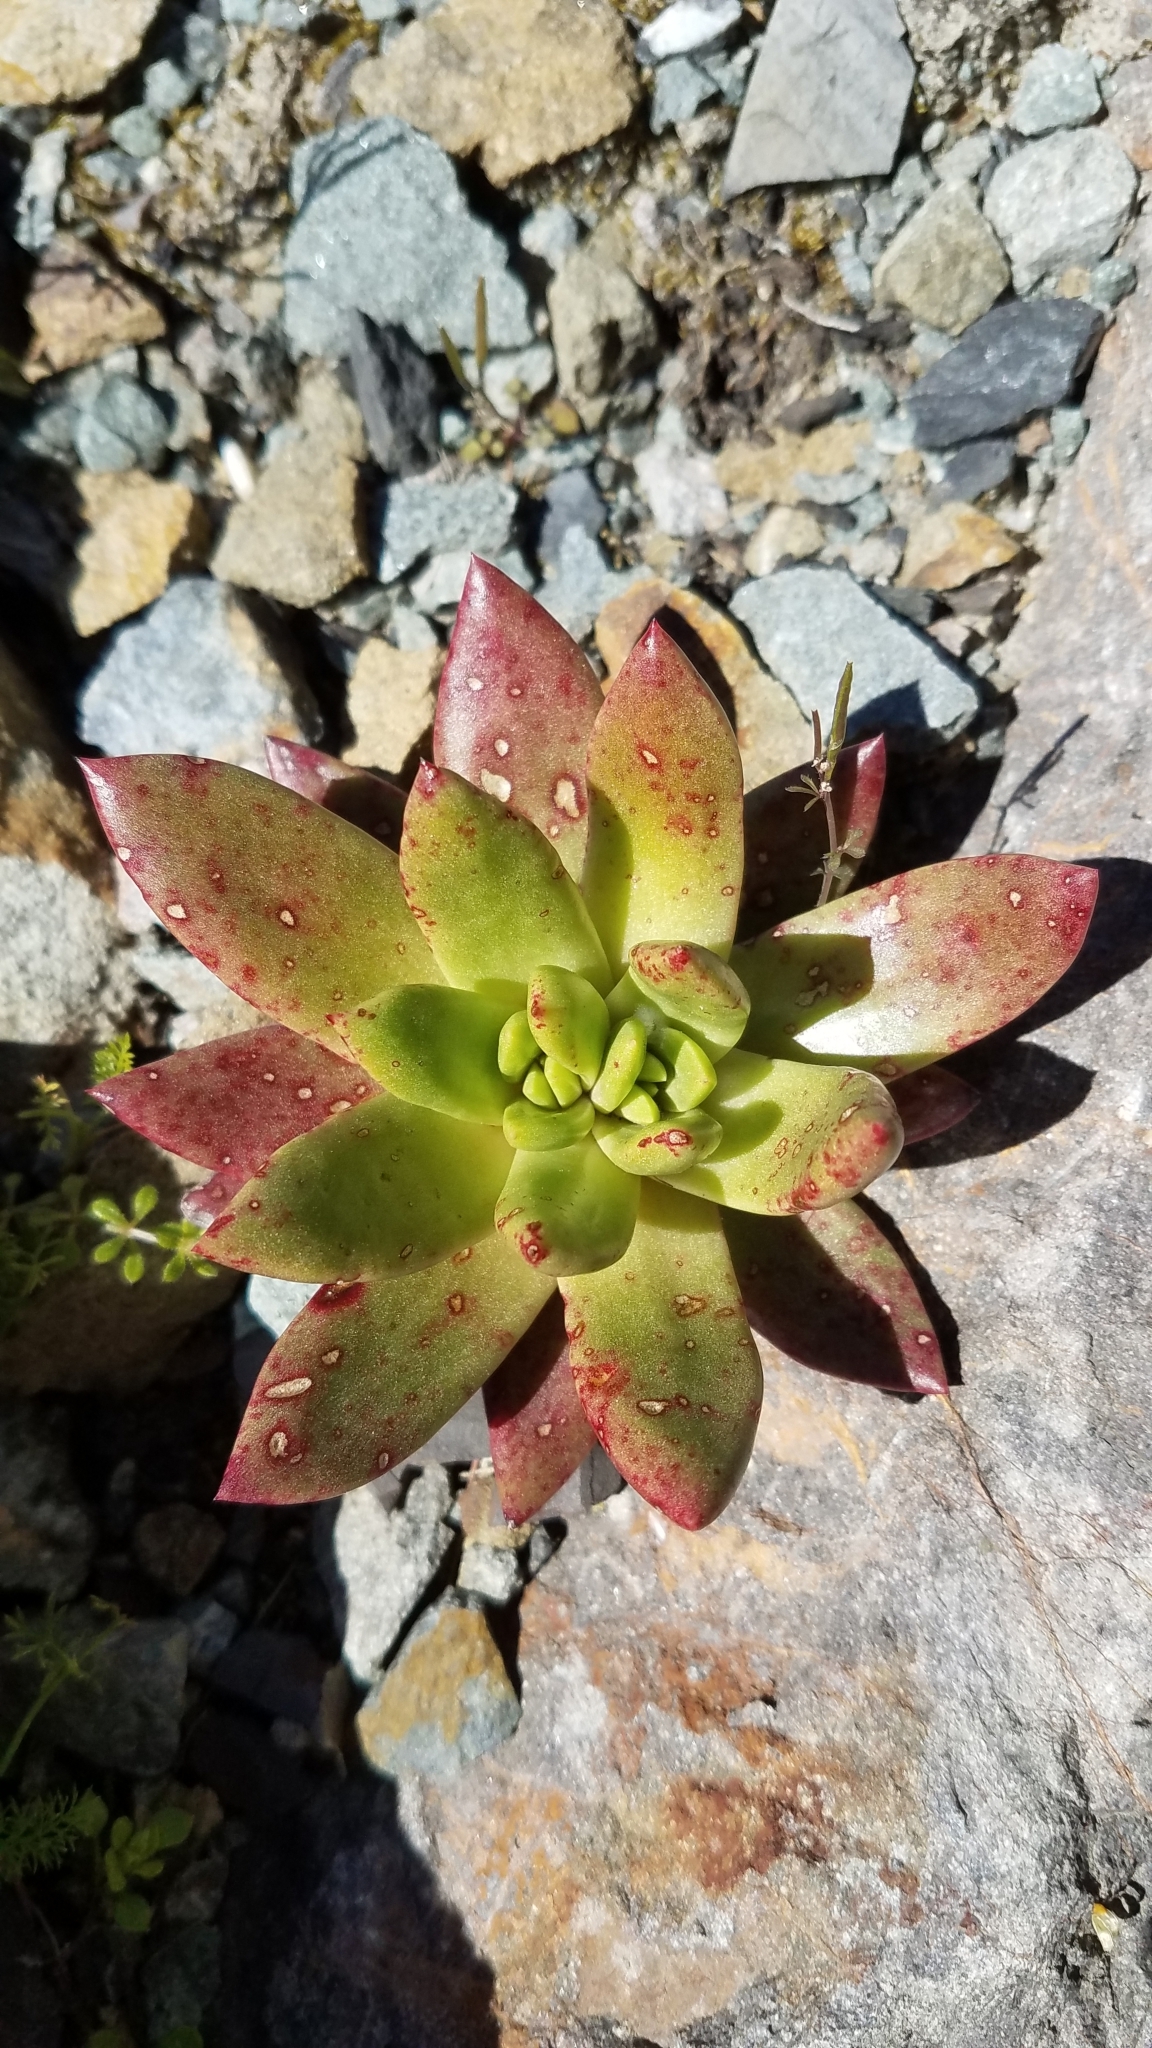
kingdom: Plantae
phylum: Tracheophyta
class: Magnoliopsida
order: Saxifragales
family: Crassulaceae
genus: Dudleya
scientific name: Dudleya farinosa
